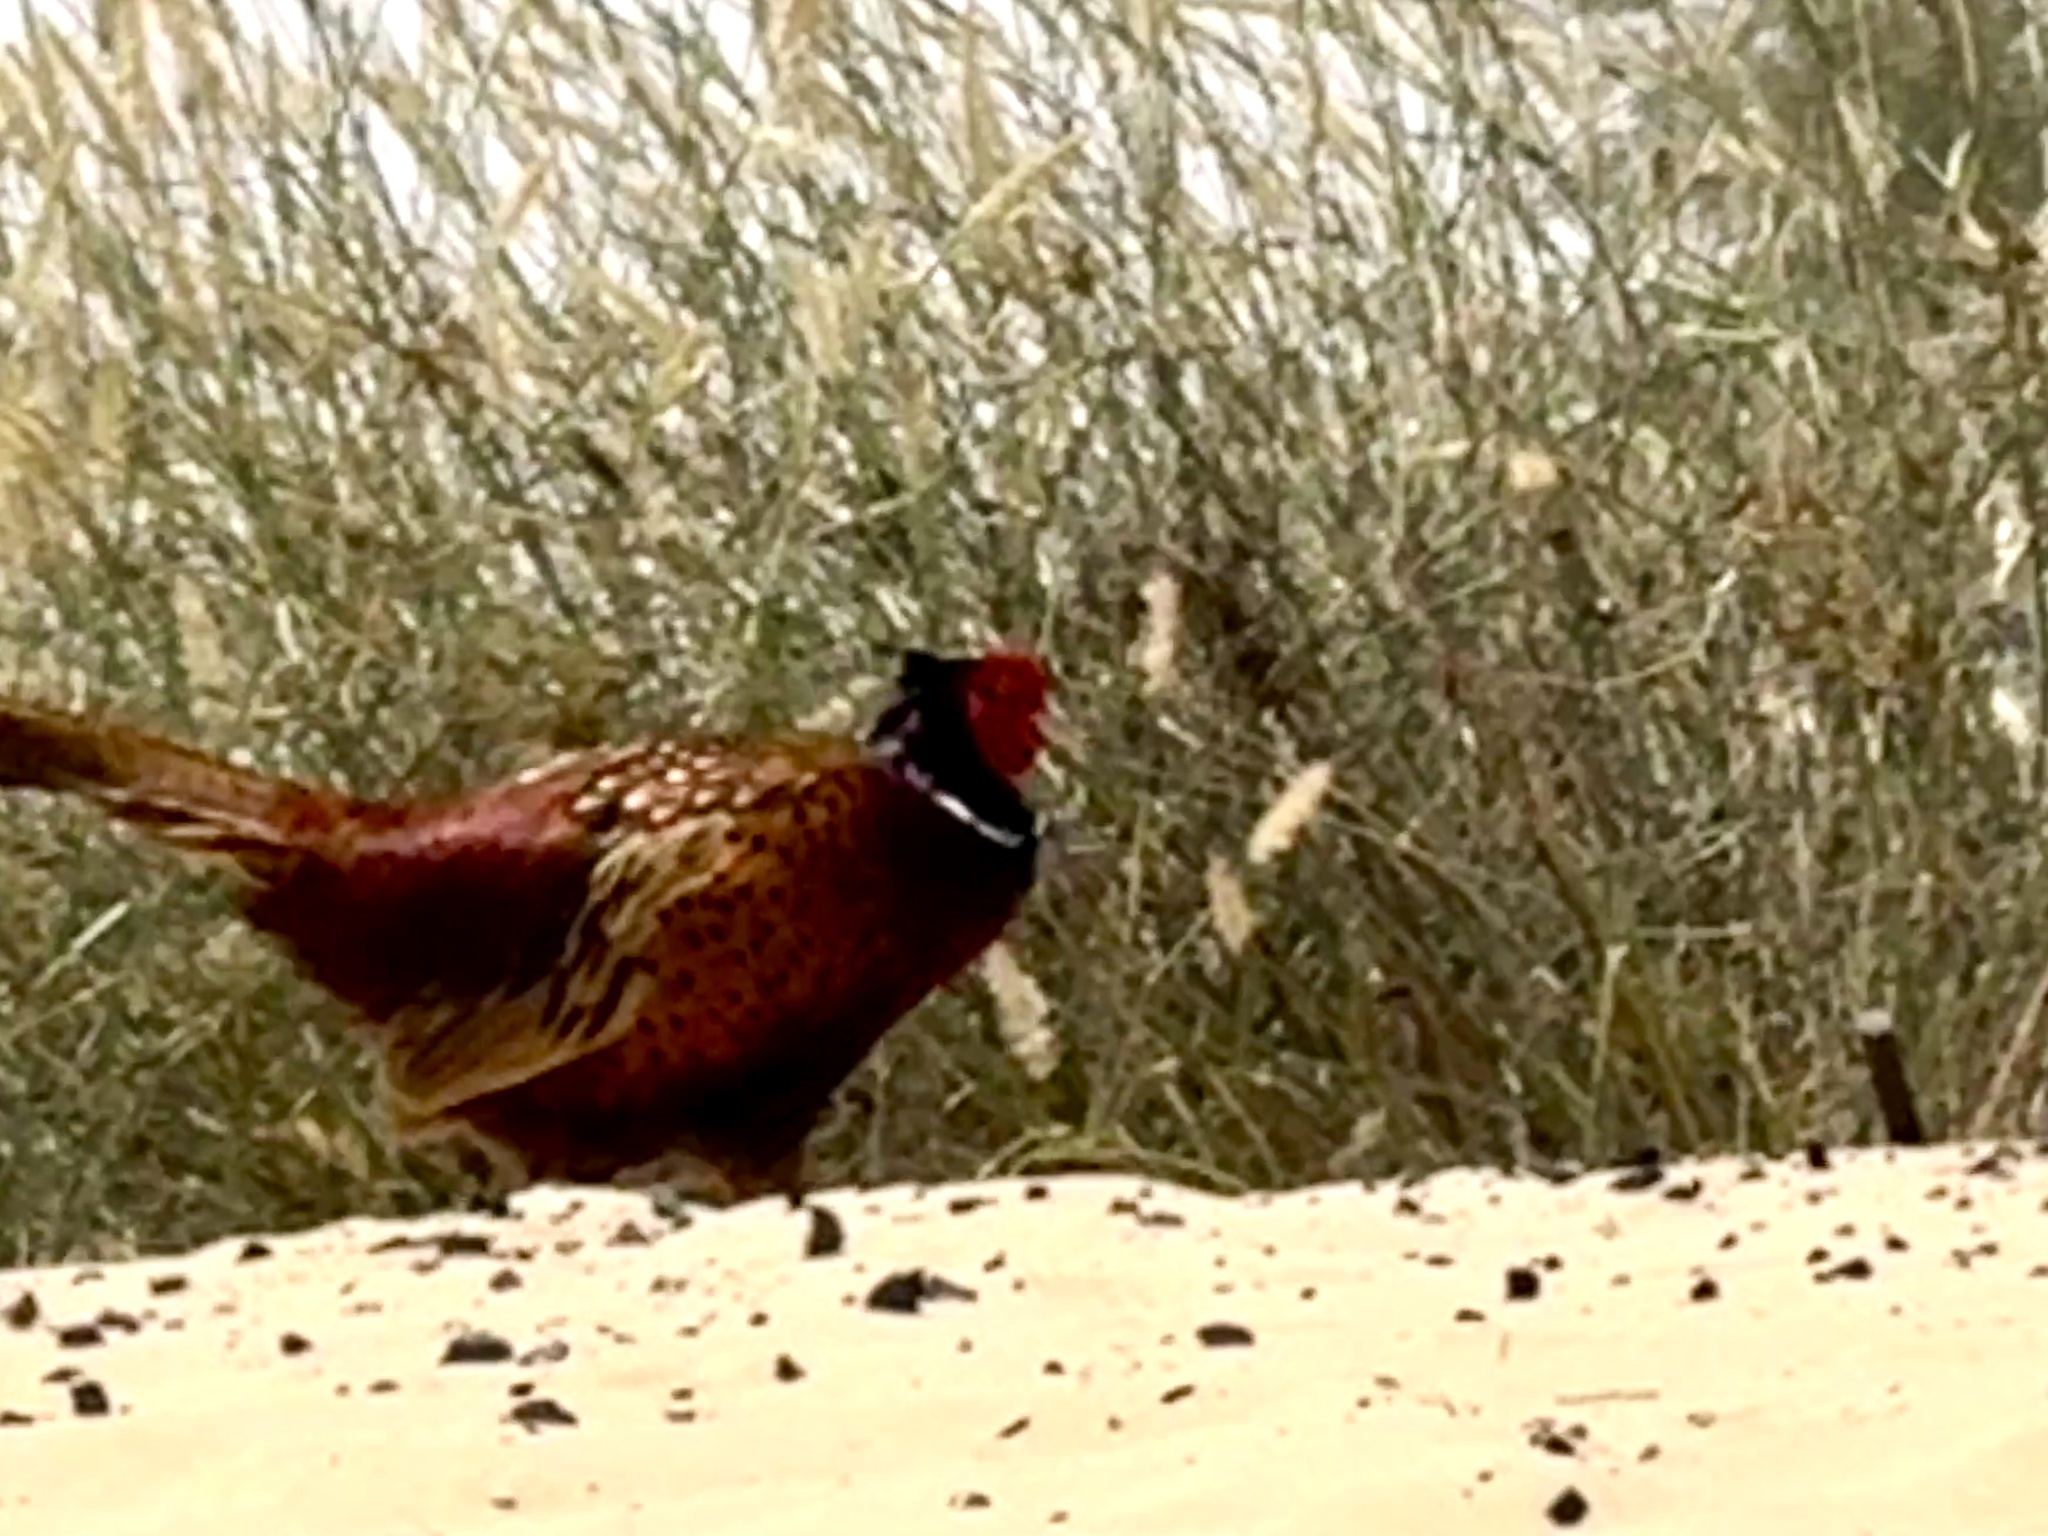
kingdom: Animalia
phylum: Chordata
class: Aves
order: Galliformes
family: Phasianidae
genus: Phasianus
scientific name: Phasianus colchicus
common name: Common pheasant
